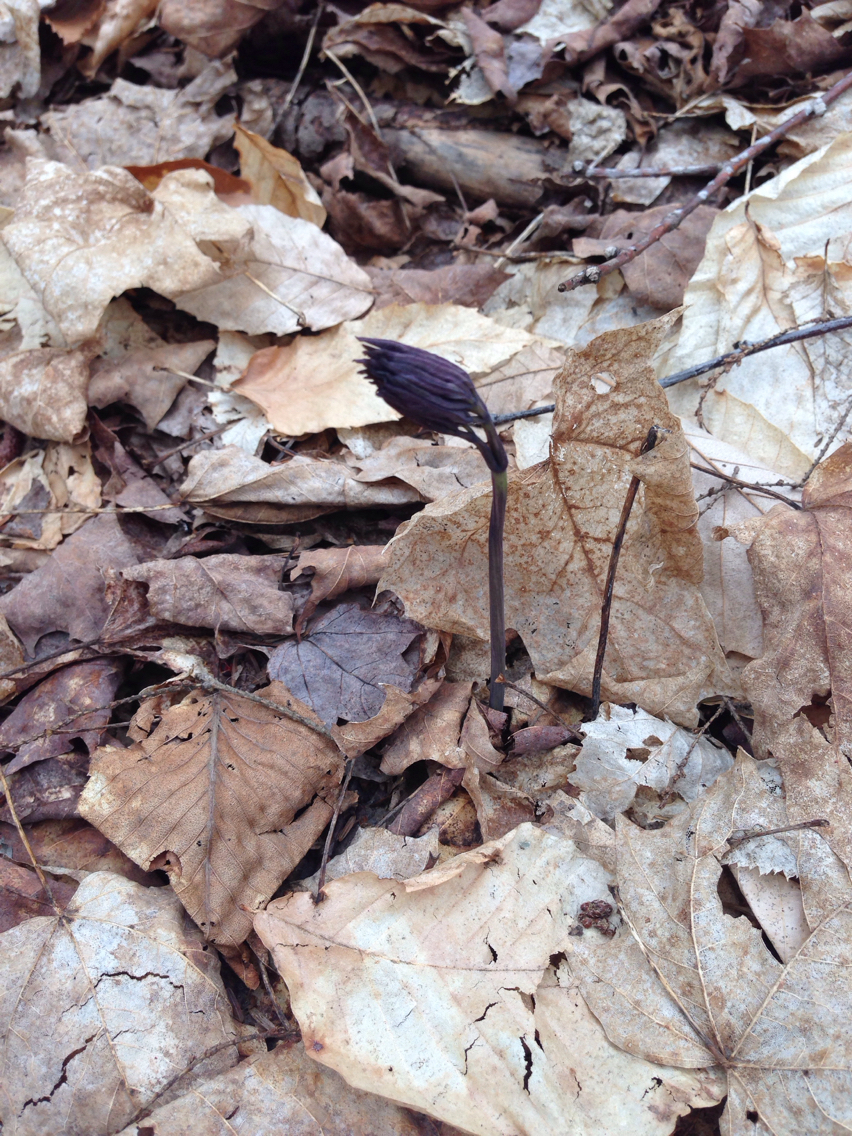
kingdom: Plantae
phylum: Tracheophyta
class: Magnoliopsida
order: Ranunculales
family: Berberidaceae
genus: Caulophyllum
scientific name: Caulophyllum giganteum
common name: Blue cohosh
